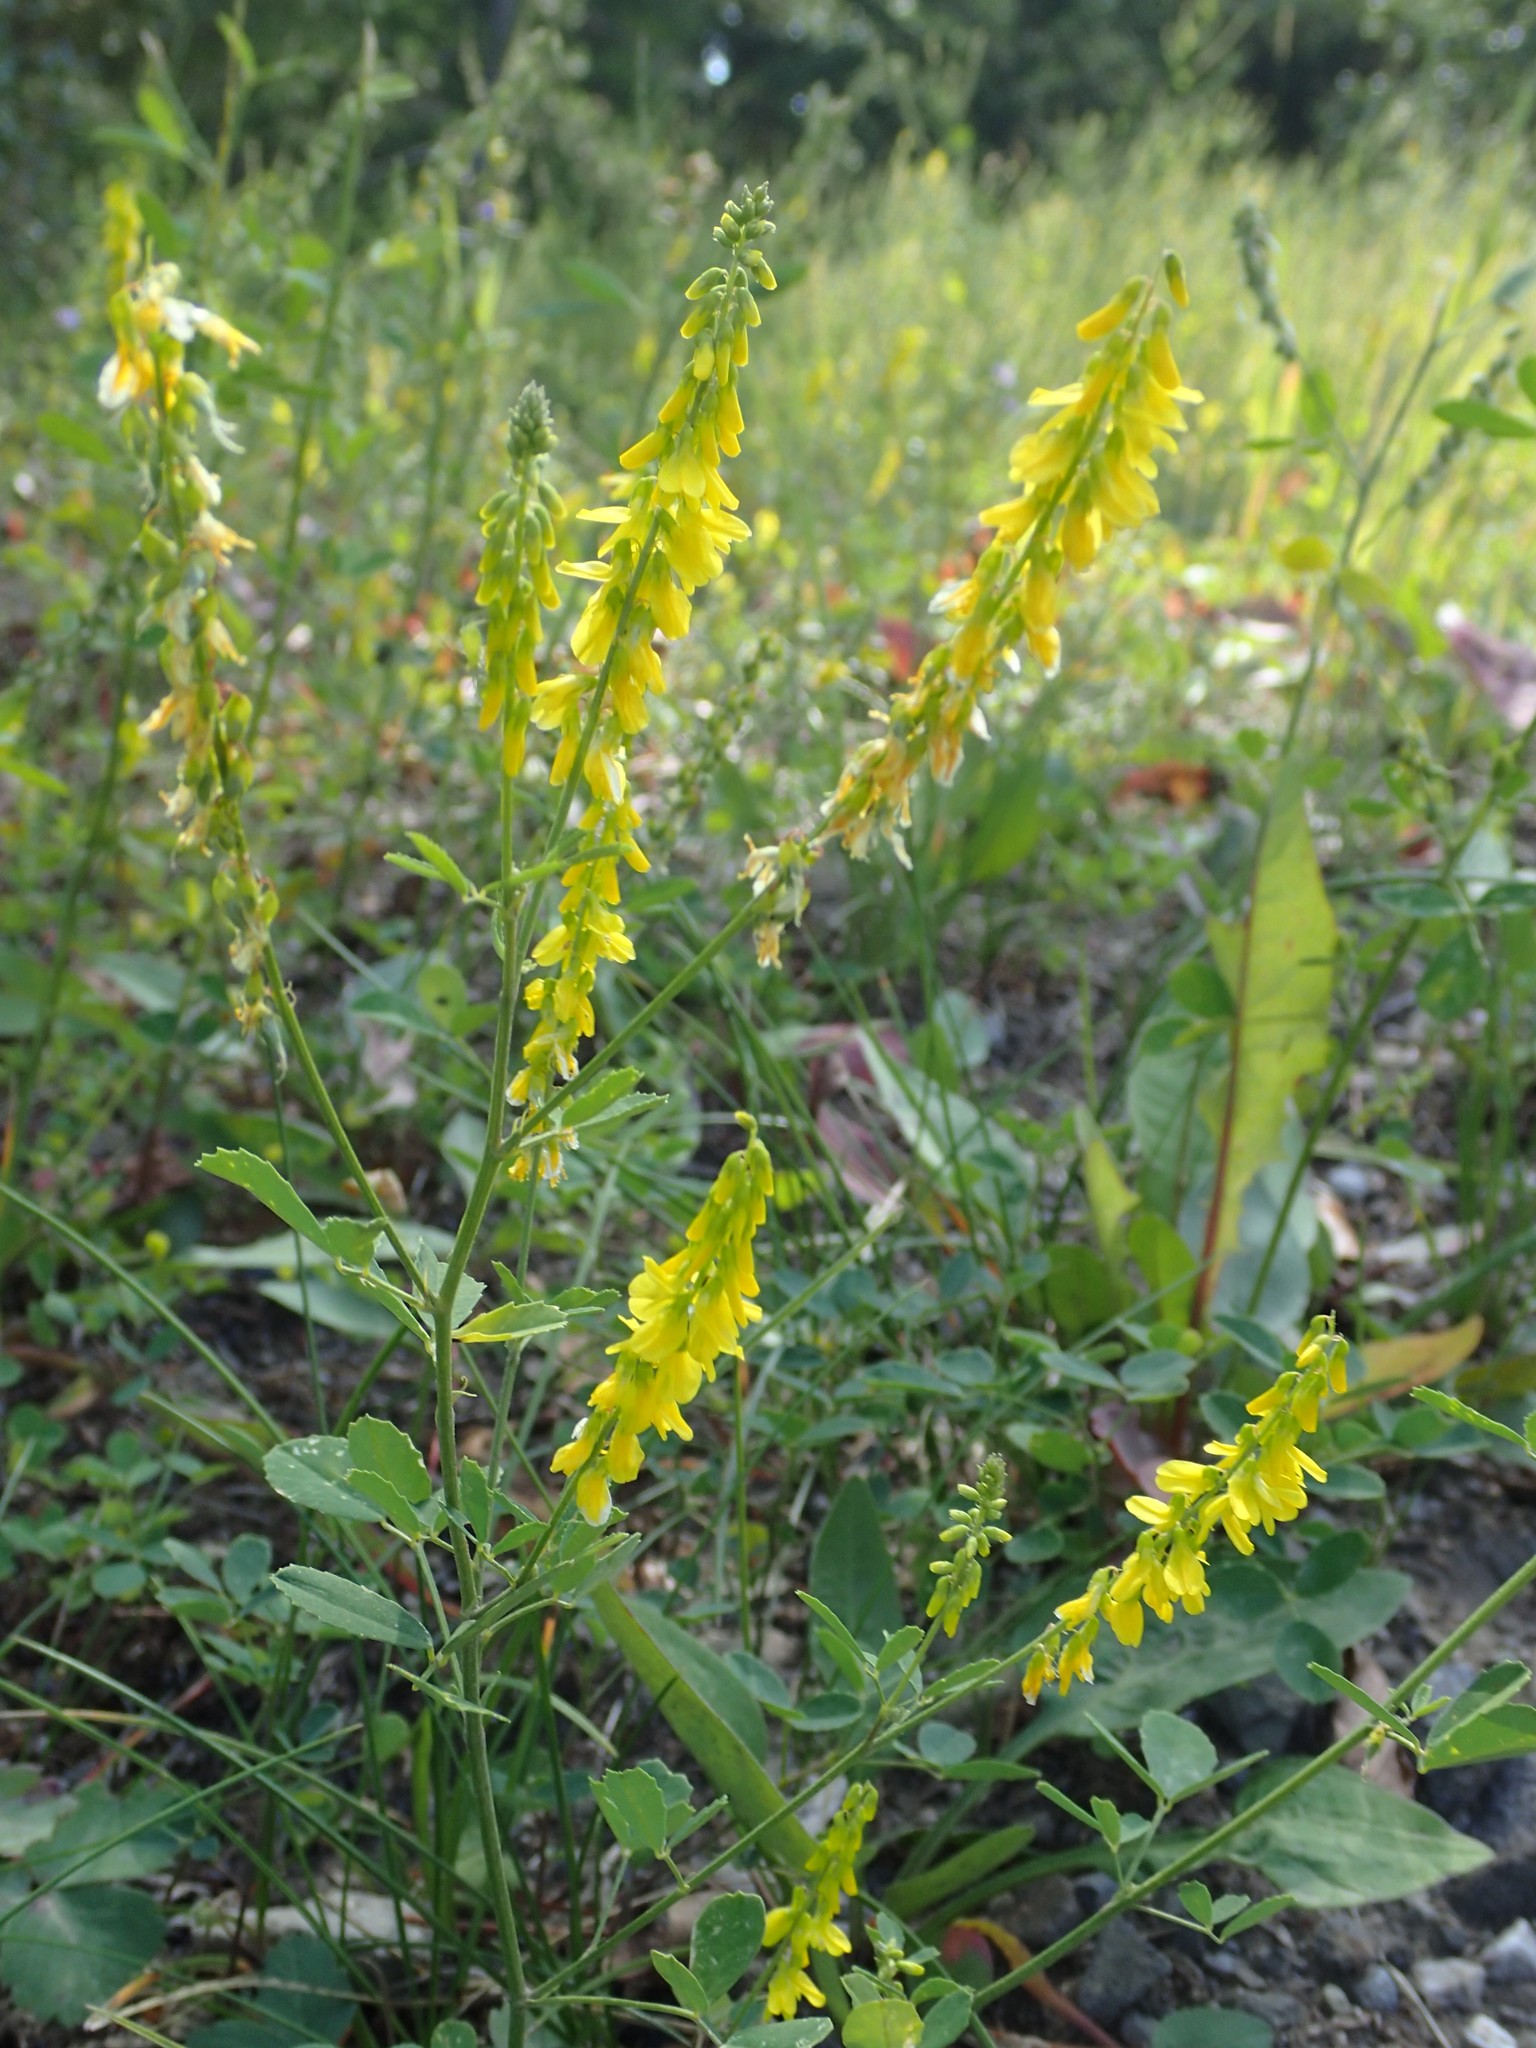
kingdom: Plantae
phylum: Tracheophyta
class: Magnoliopsida
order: Fabales
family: Fabaceae
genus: Melilotus
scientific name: Melilotus officinalis
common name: Sweetclover
